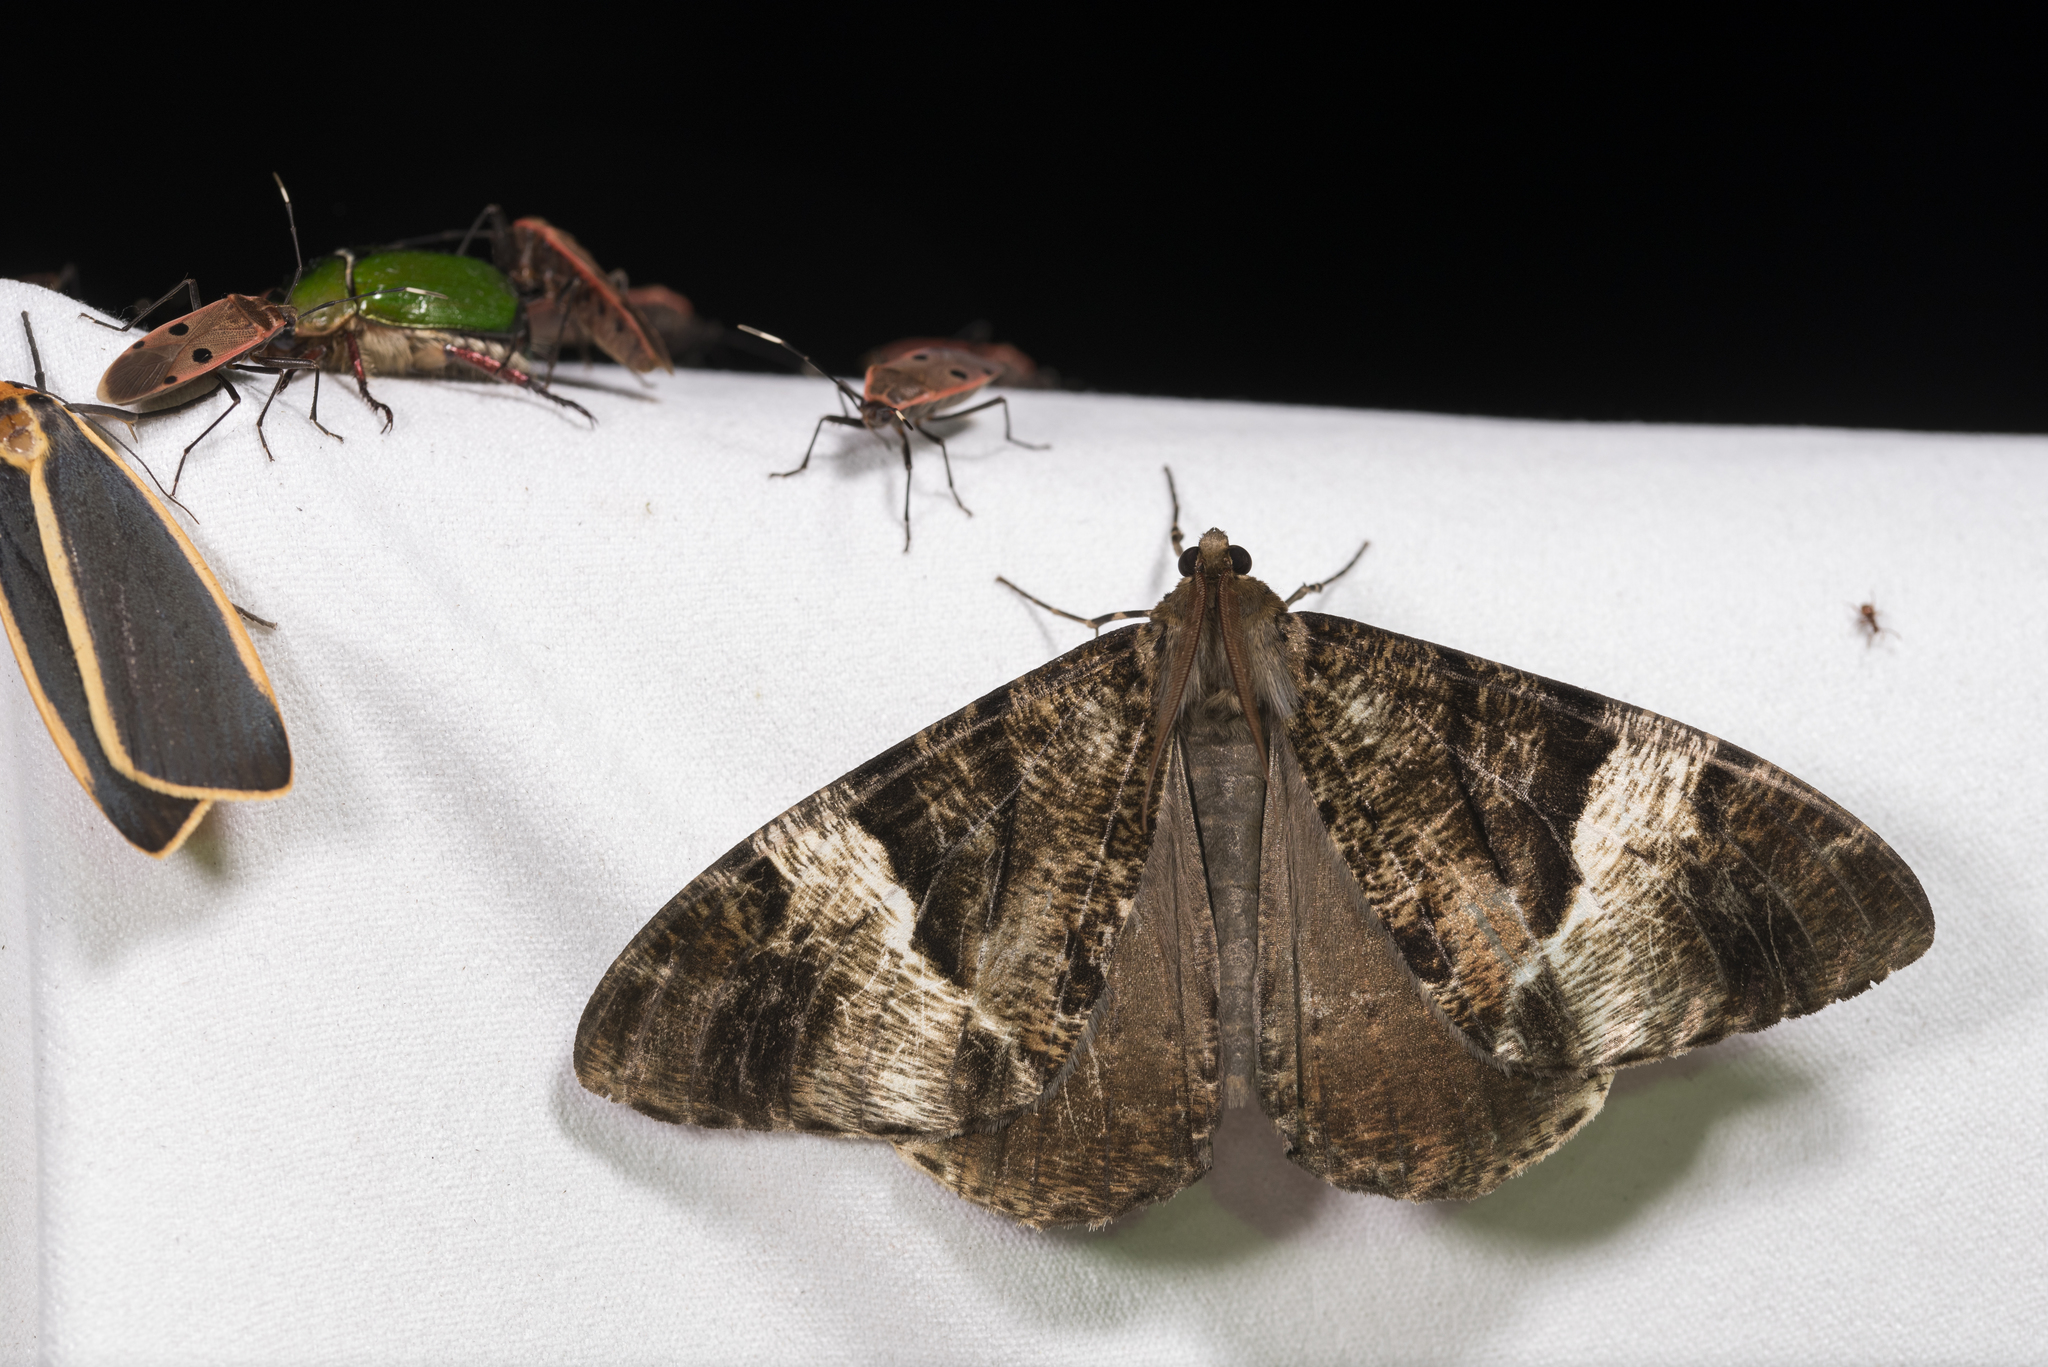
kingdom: Animalia
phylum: Arthropoda
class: Insecta
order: Lepidoptera
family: Geometridae
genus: Xandrames
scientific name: Xandrames dholaria
